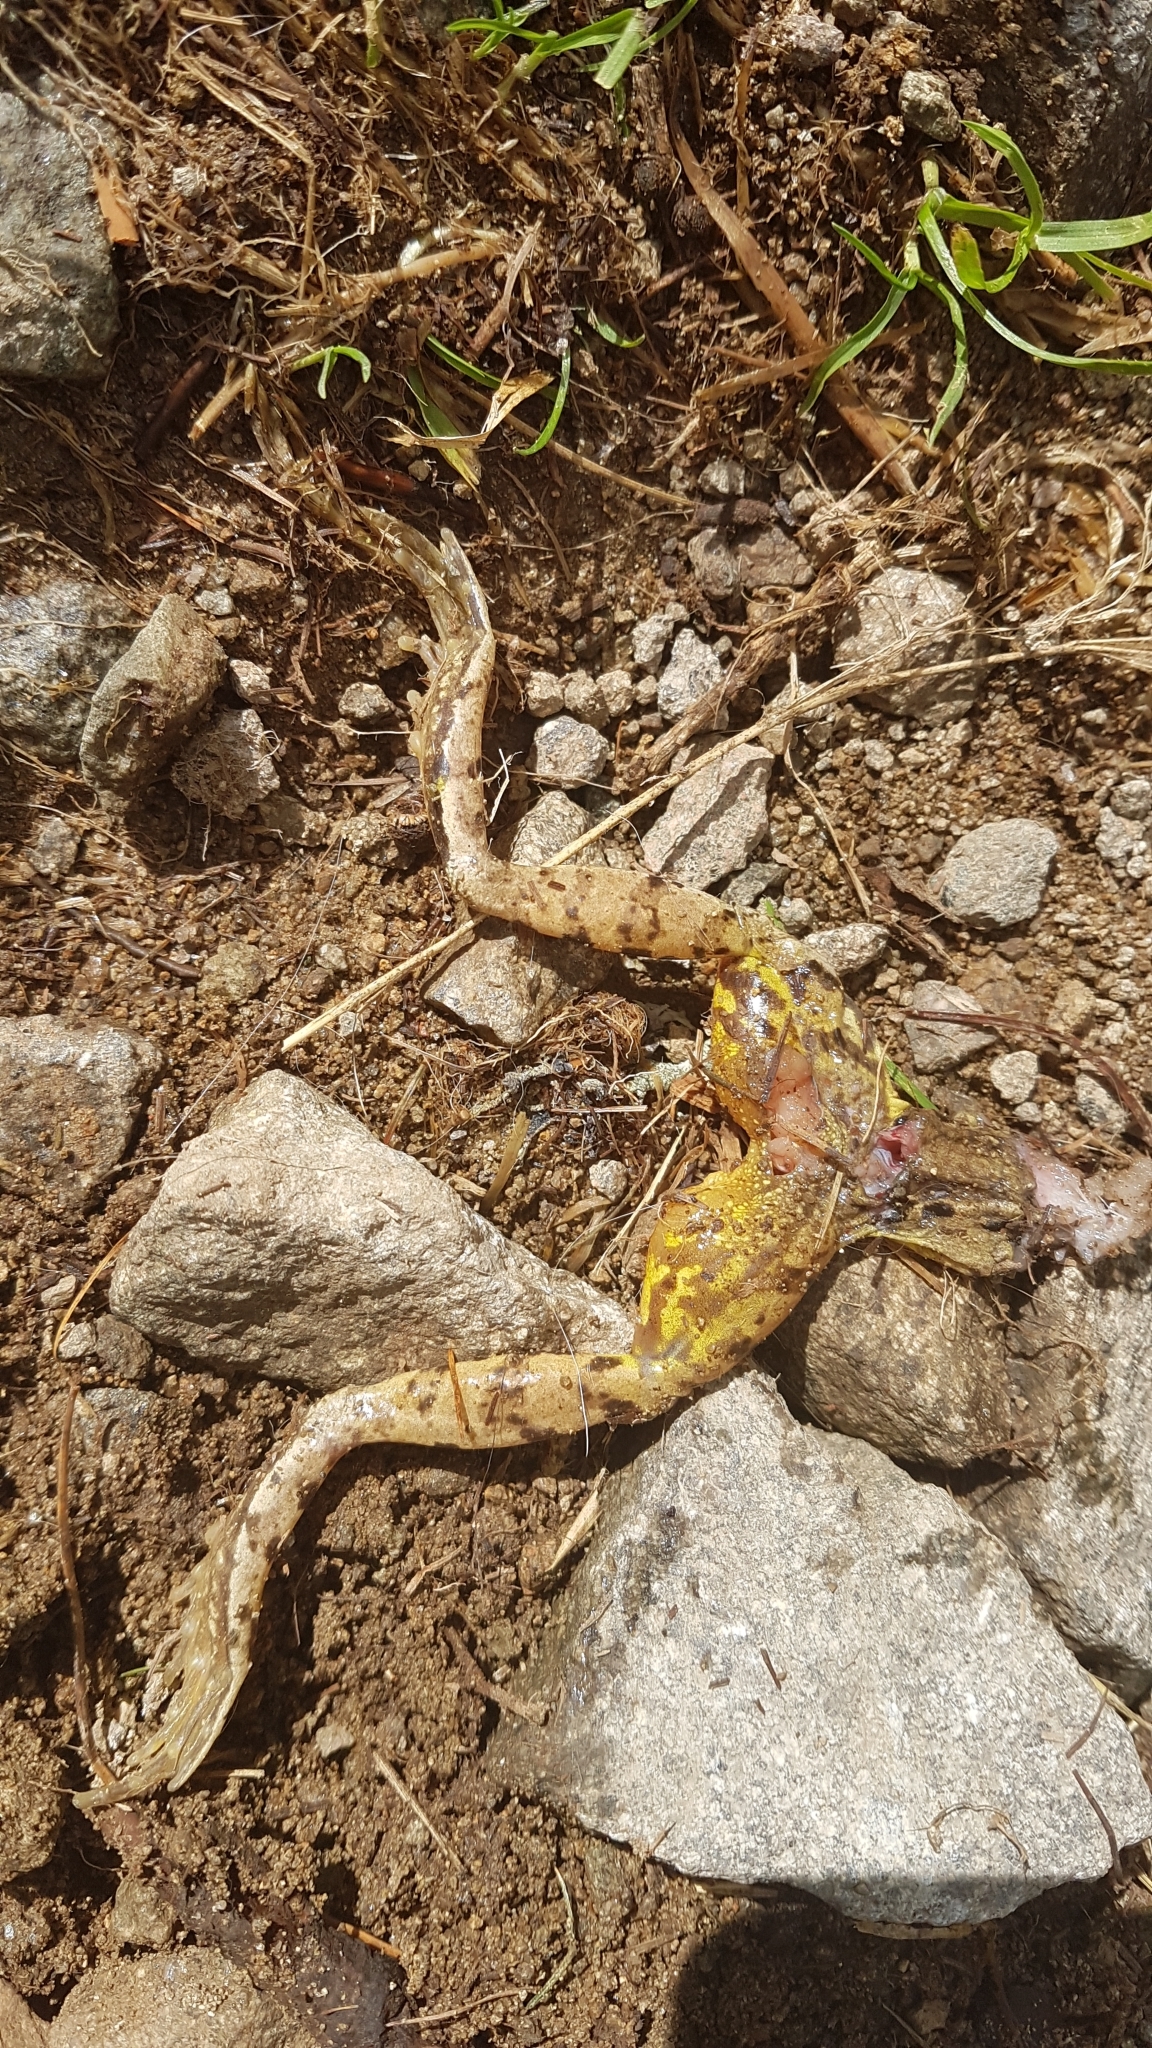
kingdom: Animalia
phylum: Chordata
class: Amphibia
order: Anura
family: Ranidae
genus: Rana
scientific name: Rana temporaria
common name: Common frog
